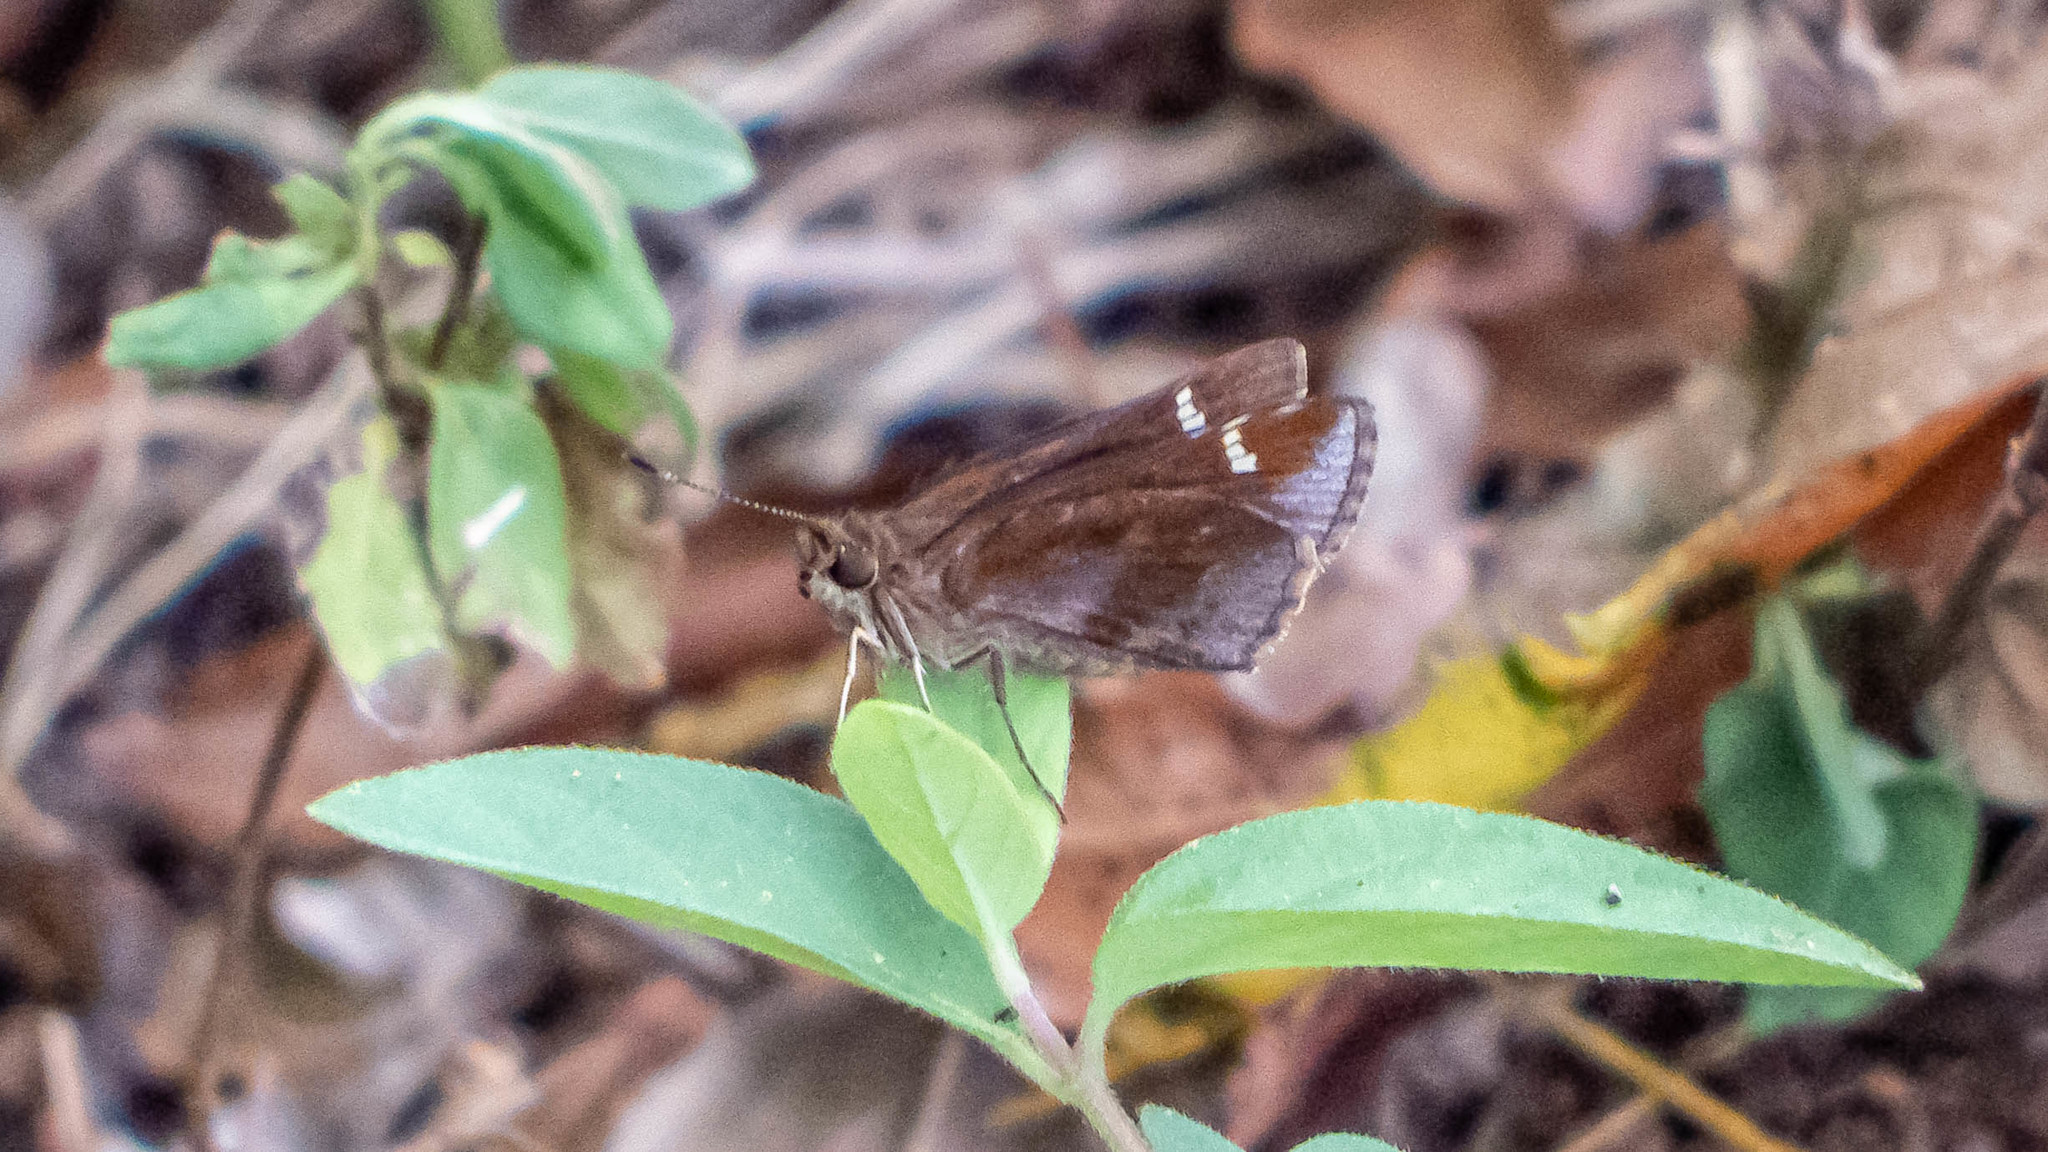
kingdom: Animalia
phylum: Arthropoda
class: Insecta
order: Lepidoptera
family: Hesperiidae
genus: Lerema
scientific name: Lerema accius
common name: Clouded skipper
